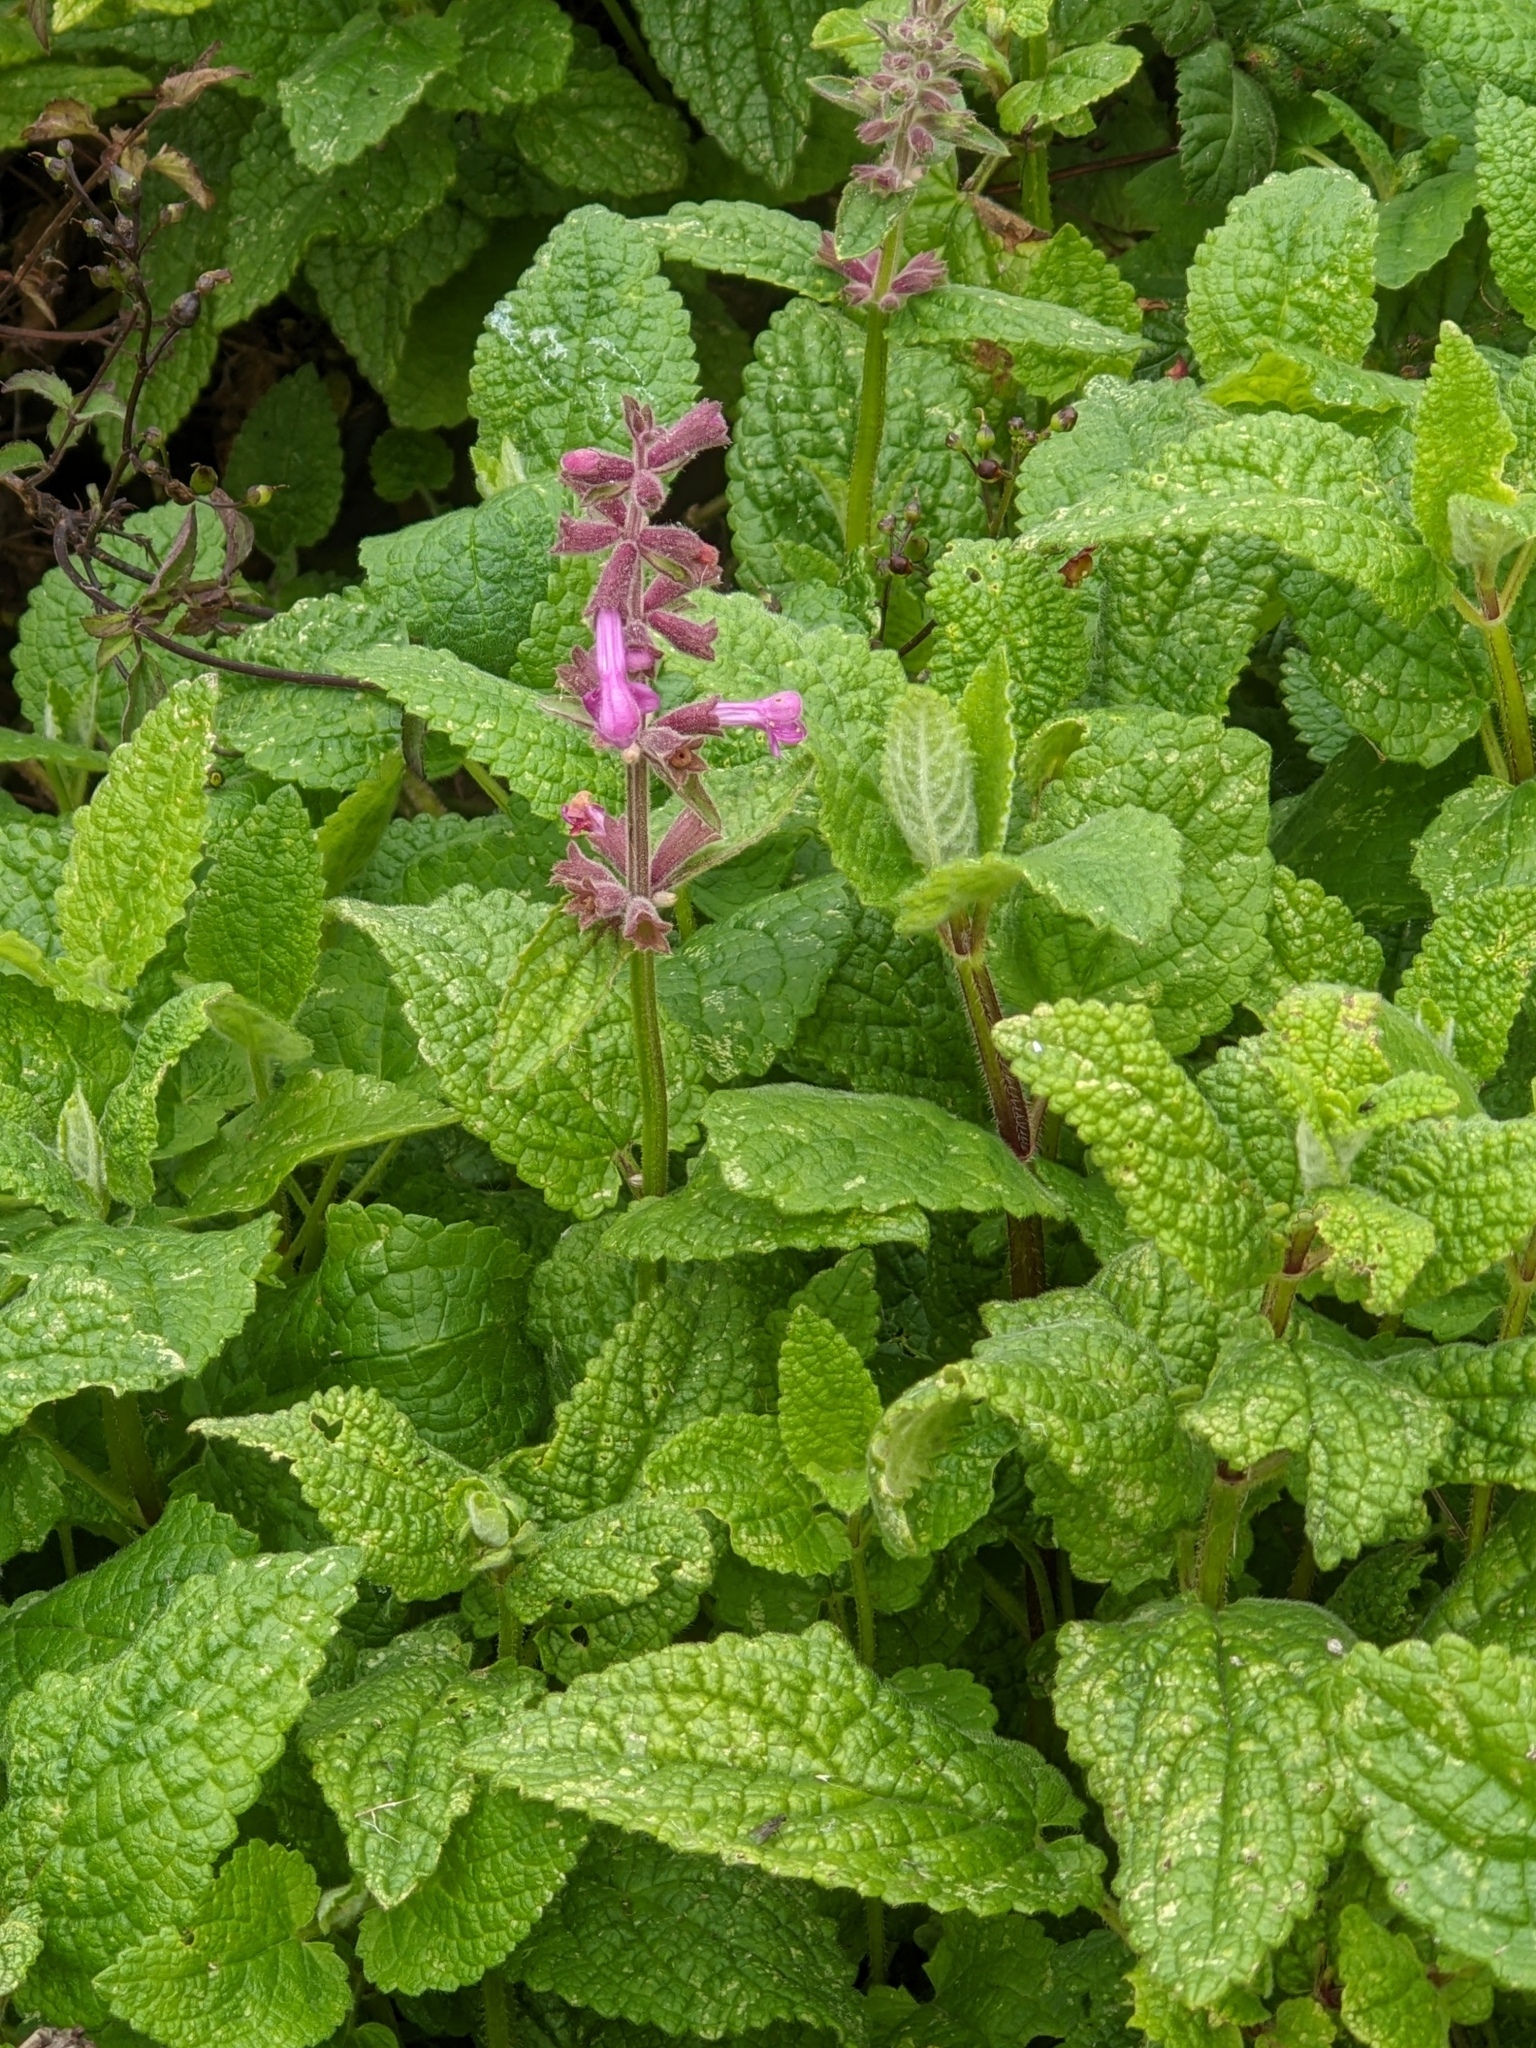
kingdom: Plantae
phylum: Tracheophyta
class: Magnoliopsida
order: Lamiales
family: Lamiaceae
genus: Stachys
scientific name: Stachys chamissonis
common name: Coastal hedge-nettle
